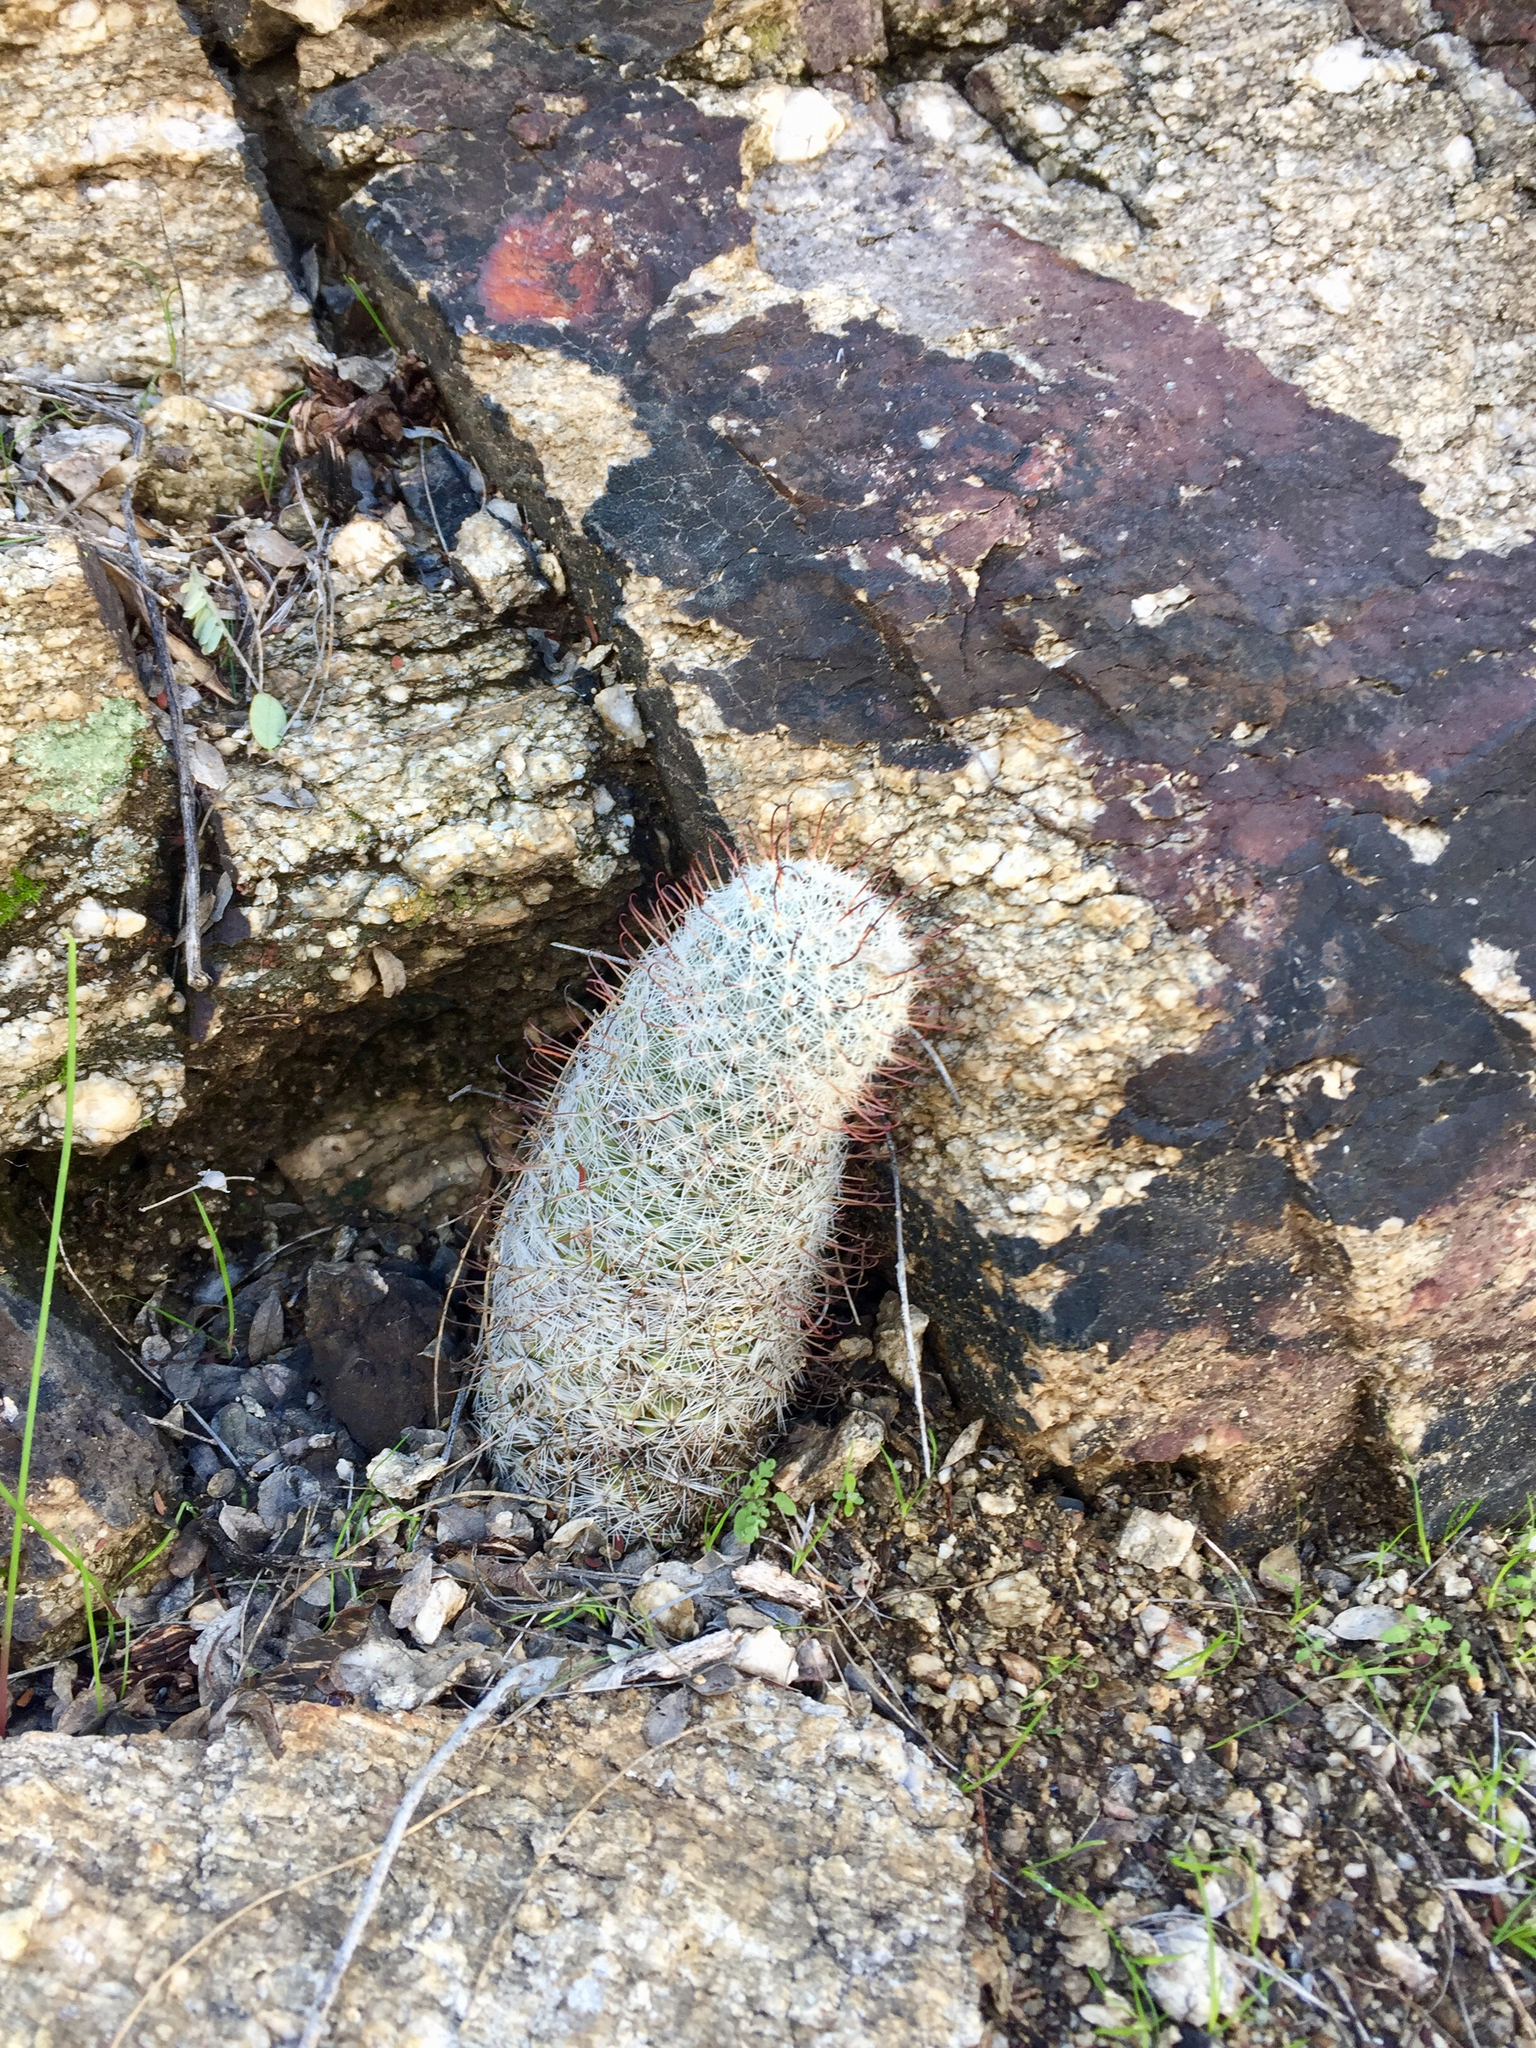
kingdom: Plantae
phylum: Tracheophyta
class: Magnoliopsida
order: Caryophyllales
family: Cactaceae
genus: Cochemiea
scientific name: Cochemiea grahamii
